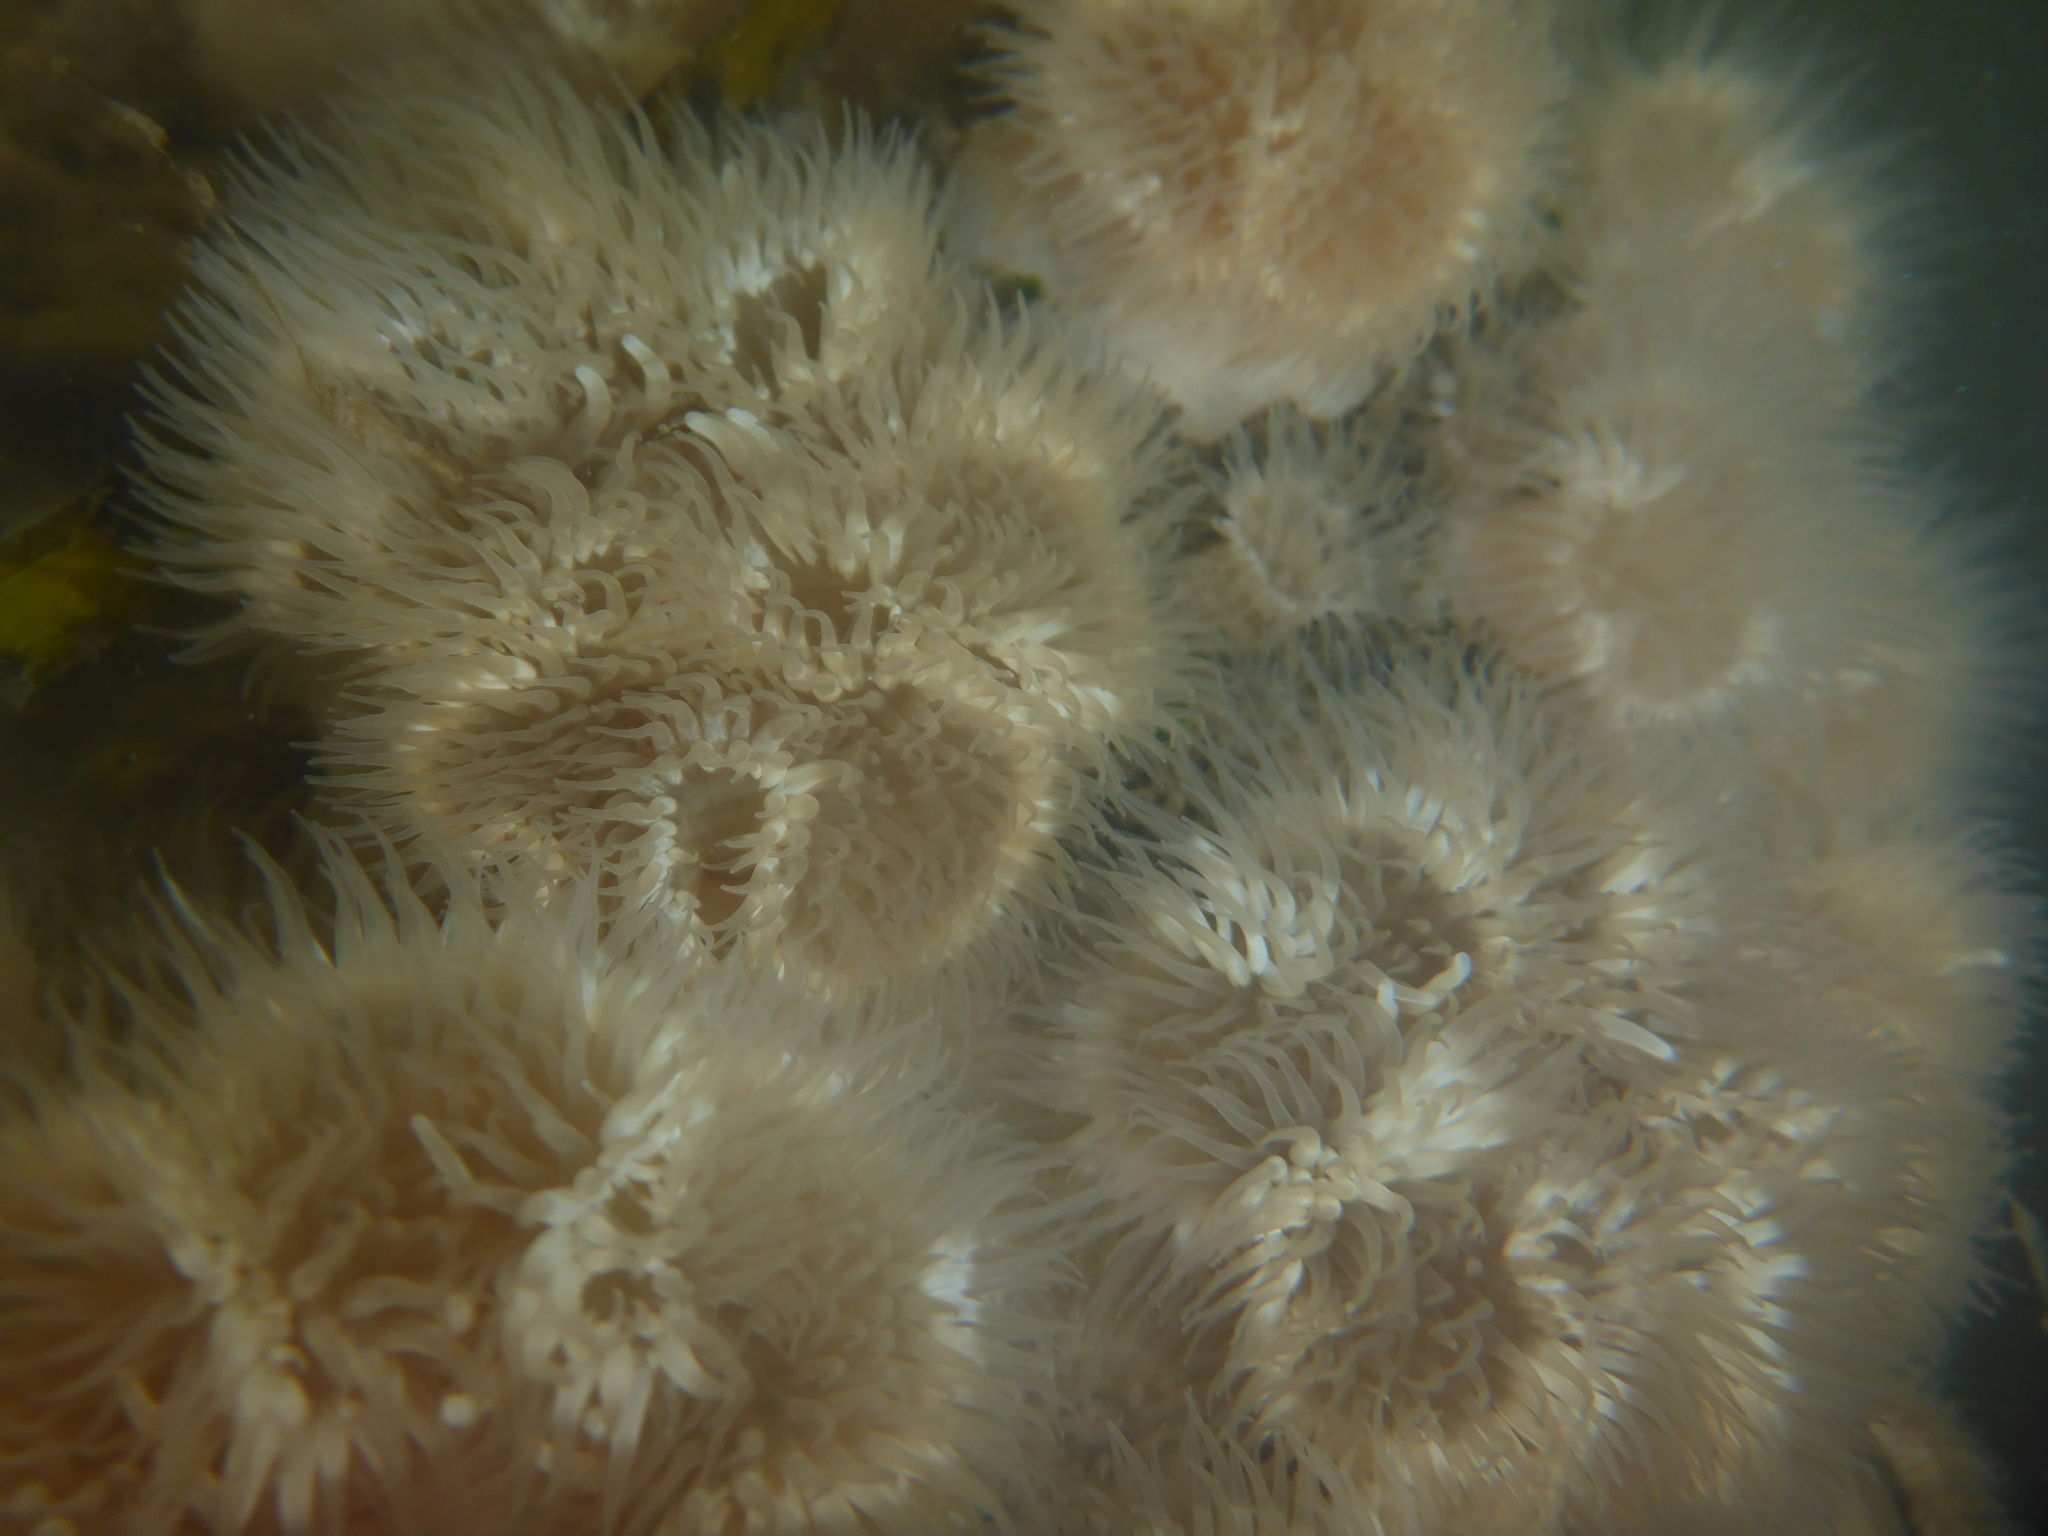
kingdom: Animalia
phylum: Cnidaria
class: Anthozoa
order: Actiniaria
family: Metridiidae
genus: Metridium
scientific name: Metridium senile
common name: Clonal plumose anemone
